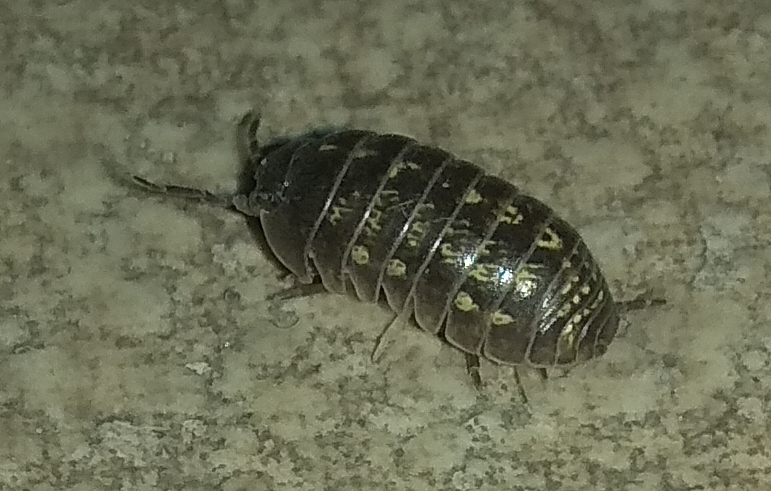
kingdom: Animalia
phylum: Arthropoda
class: Malacostraca
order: Isopoda
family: Armadillidiidae
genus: Armadillidium
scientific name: Armadillidium vulgare
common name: Common pill woodlouse
